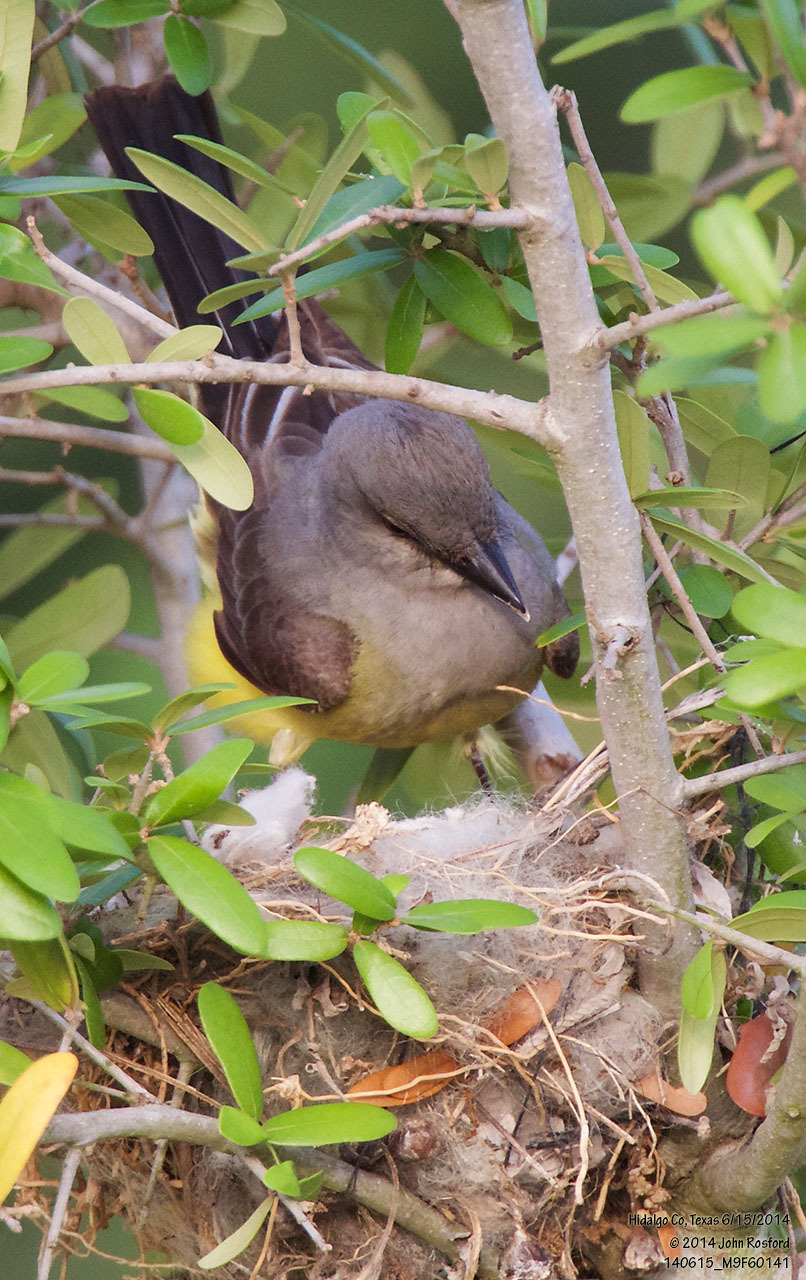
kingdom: Animalia
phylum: Chordata
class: Aves
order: Passeriformes
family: Tyrannidae
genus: Tyrannus
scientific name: Tyrannus verticalis
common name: Western kingbird
